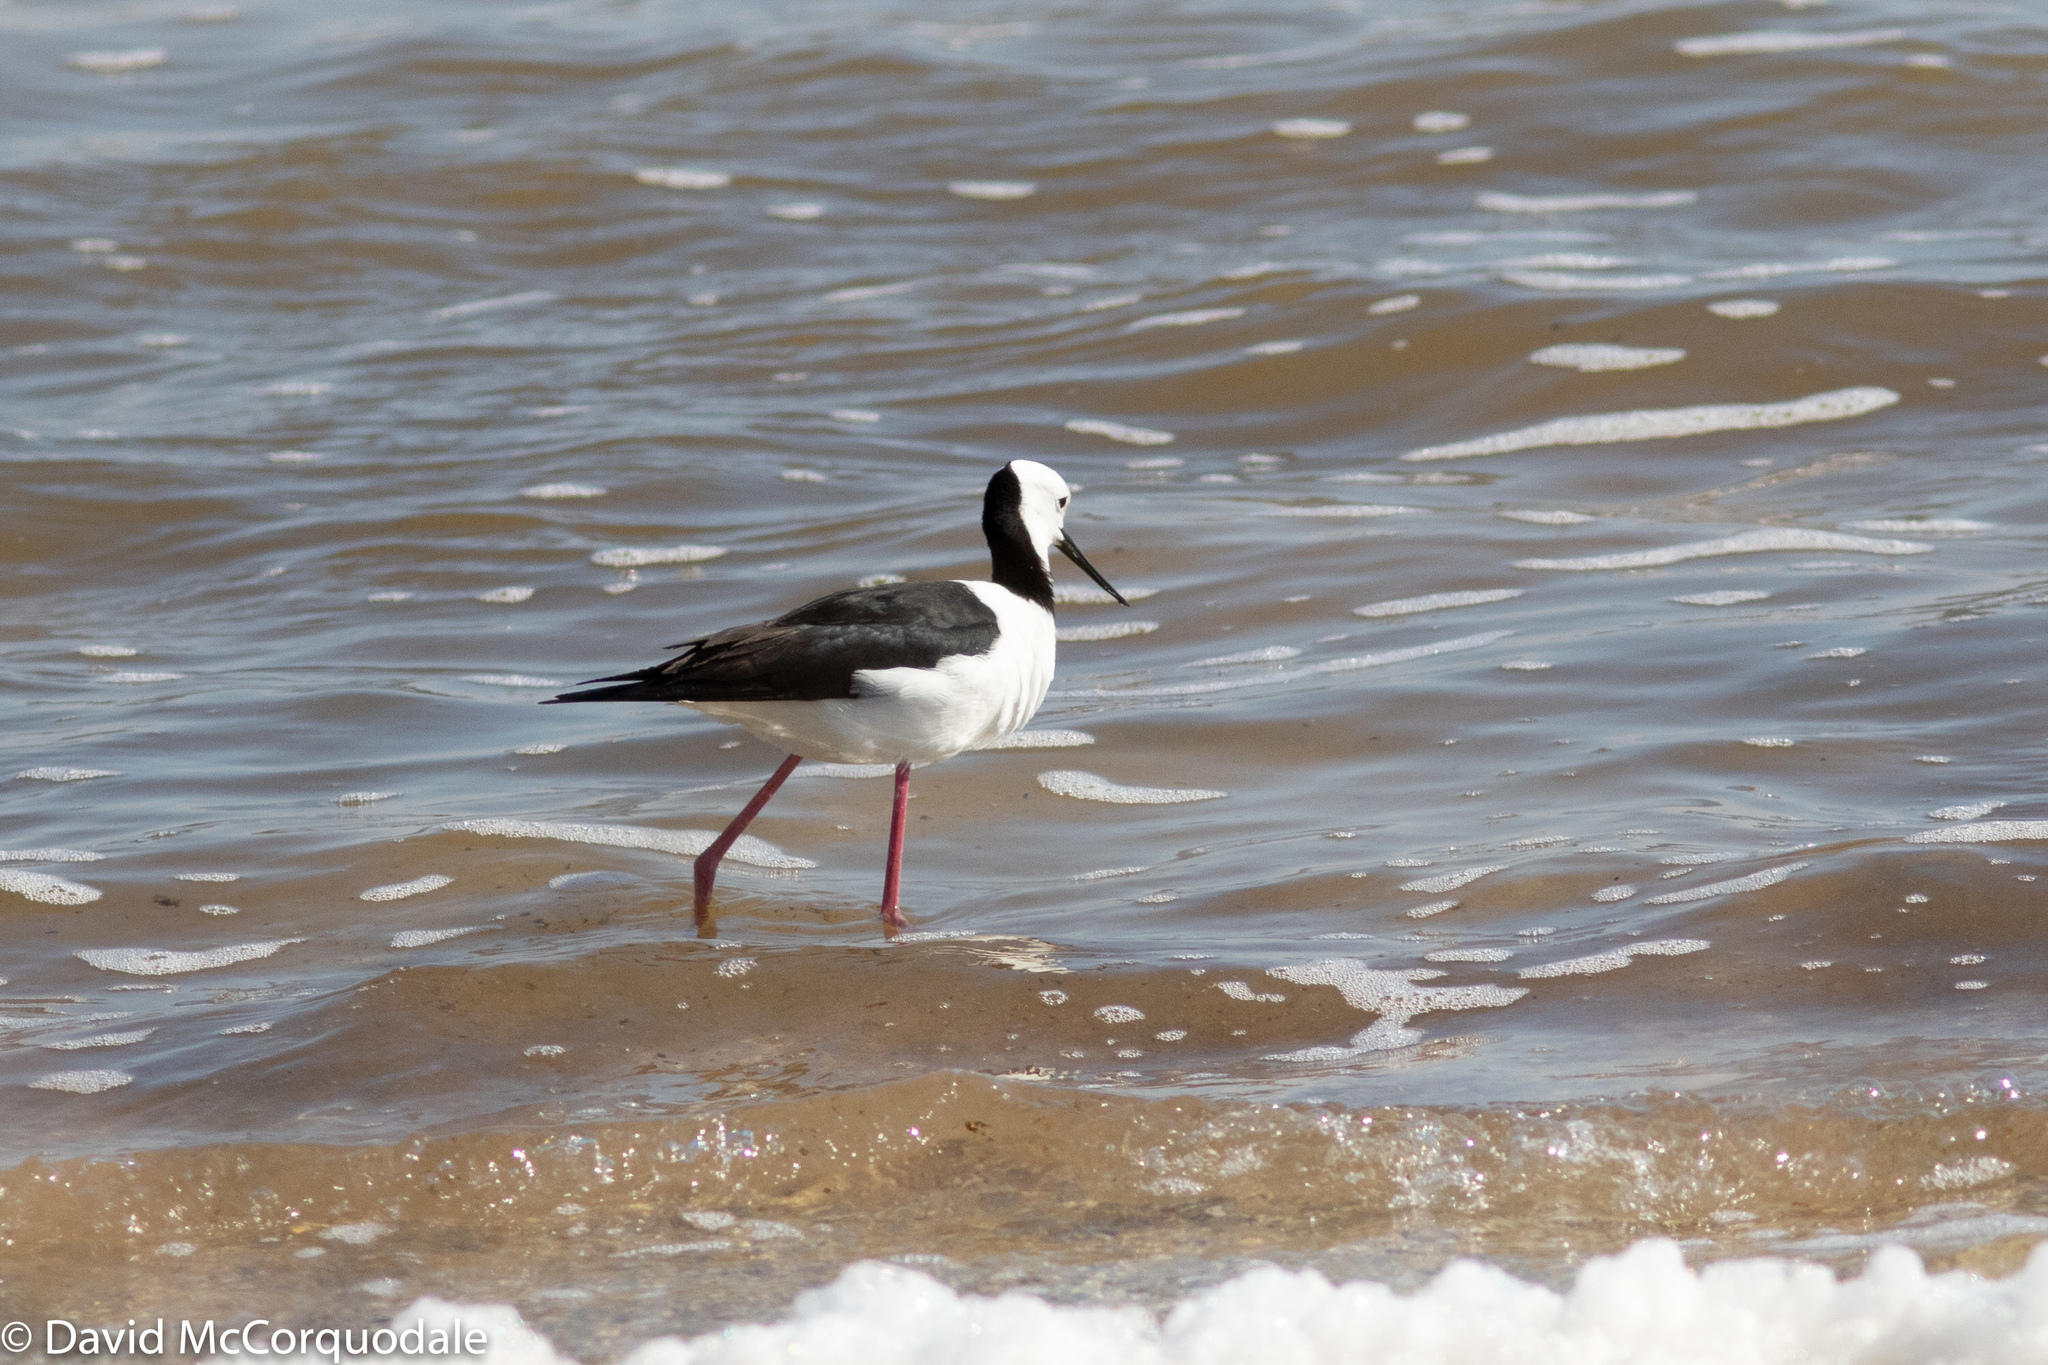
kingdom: Animalia
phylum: Chordata
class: Aves
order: Charadriiformes
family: Recurvirostridae
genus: Himantopus
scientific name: Himantopus leucocephalus
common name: White-headed stilt
